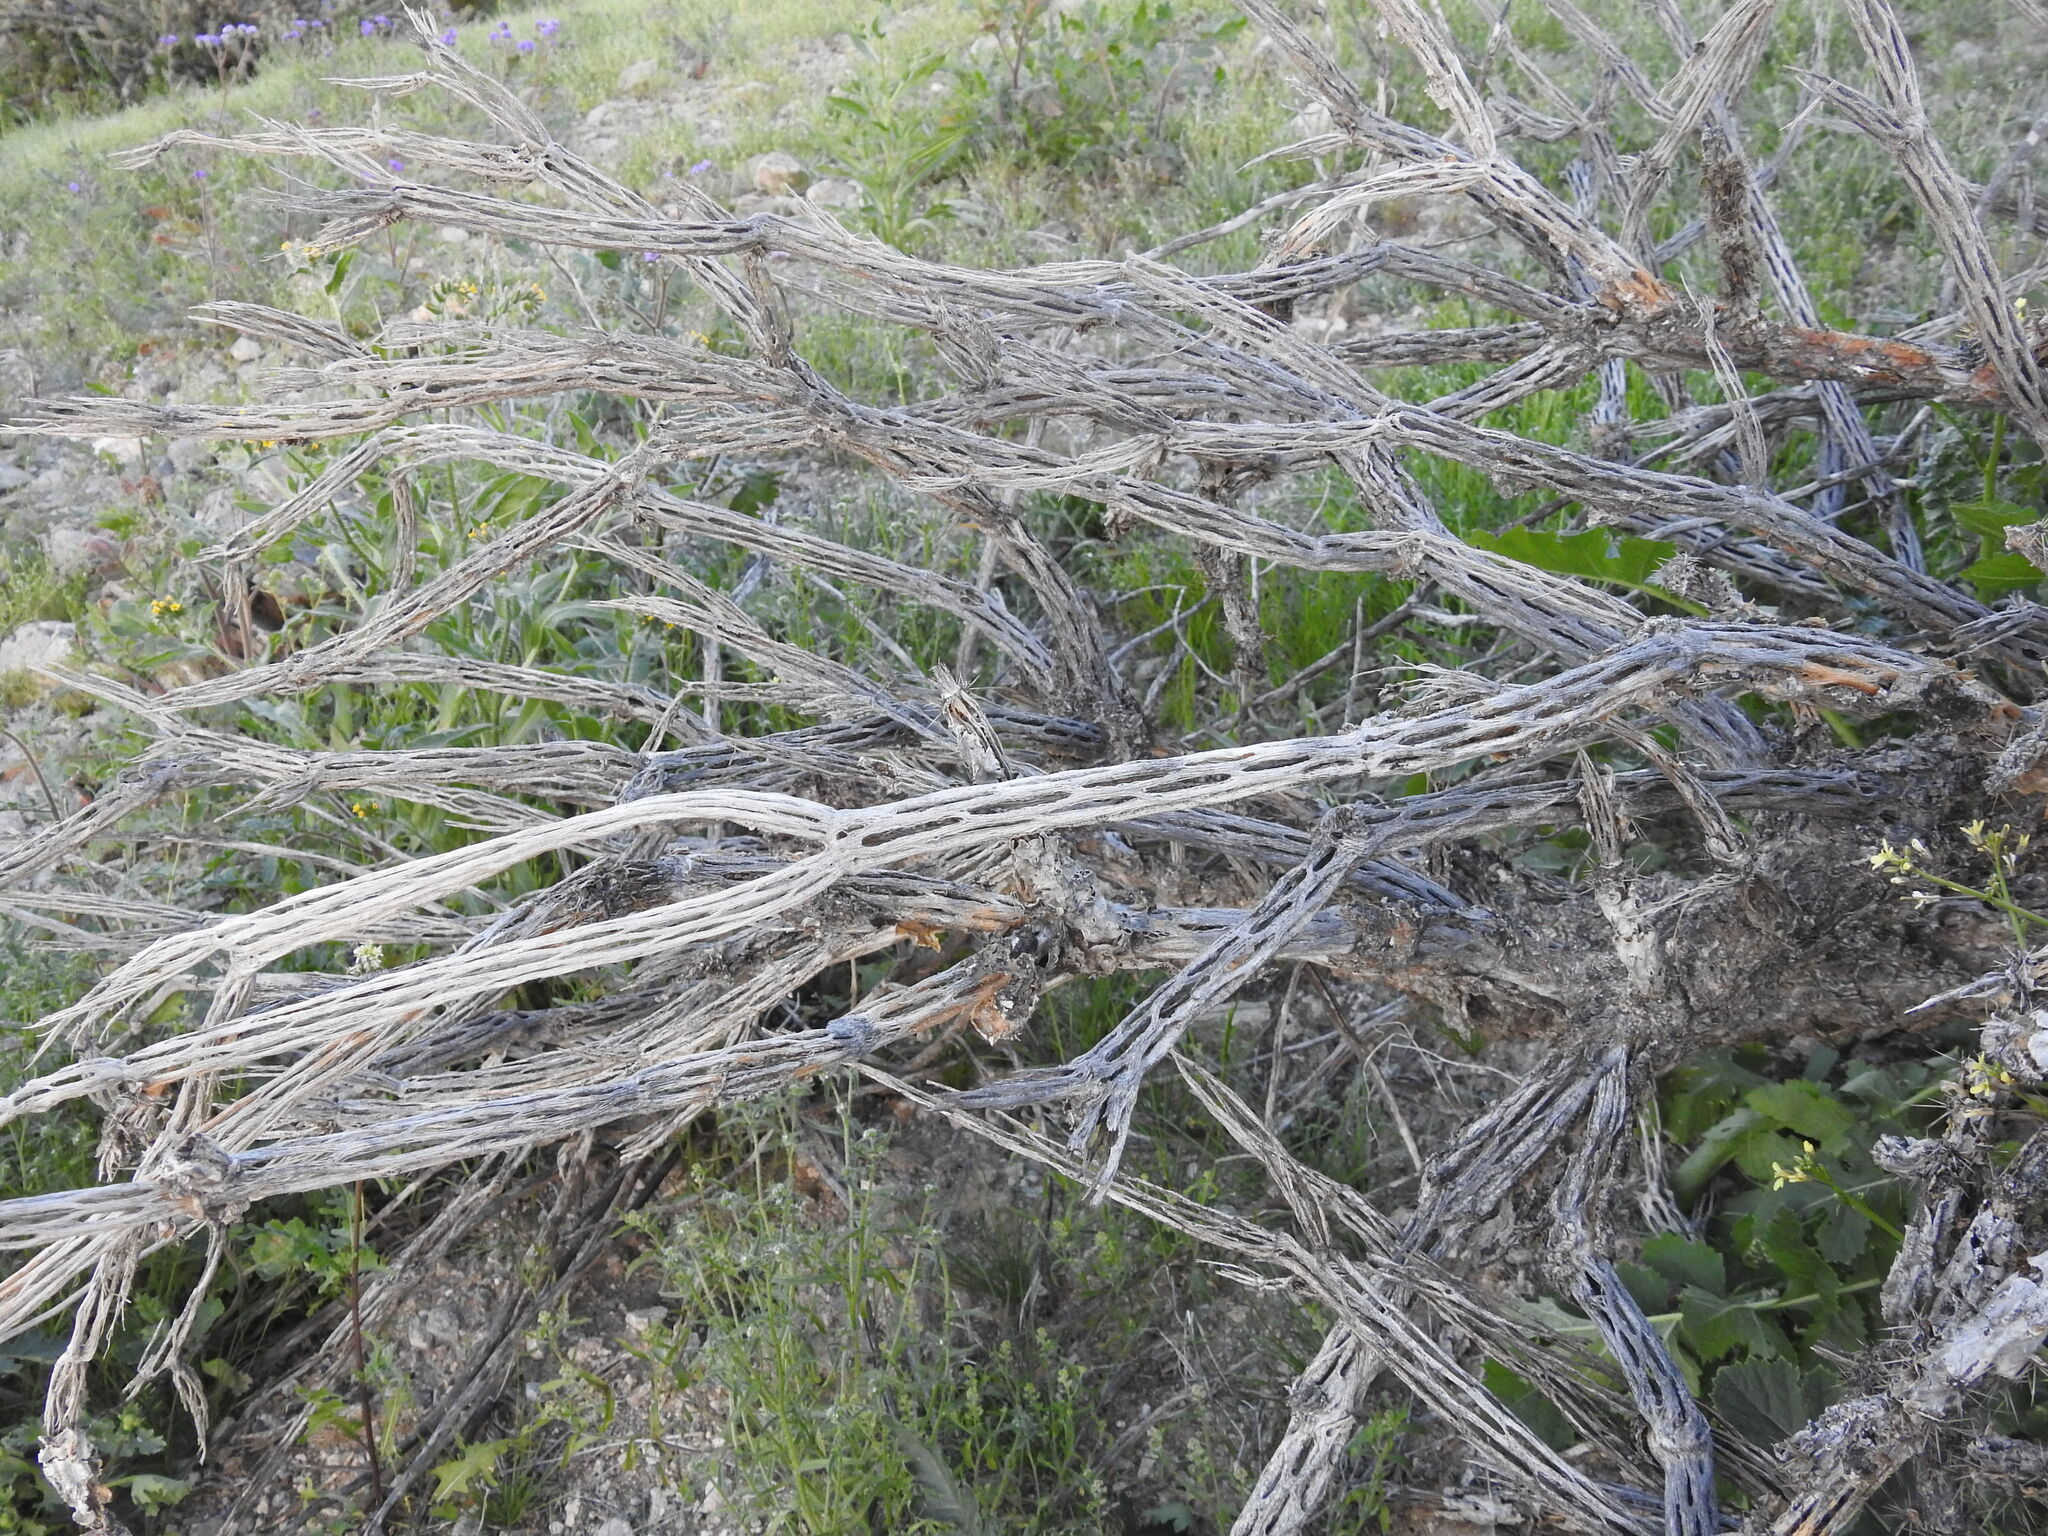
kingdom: Plantae
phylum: Tracheophyta
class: Magnoliopsida
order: Caryophyllales
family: Cactaceae
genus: Cylindropuntia
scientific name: Cylindropuntia acanthocarpa
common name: Buckhorn cholla
